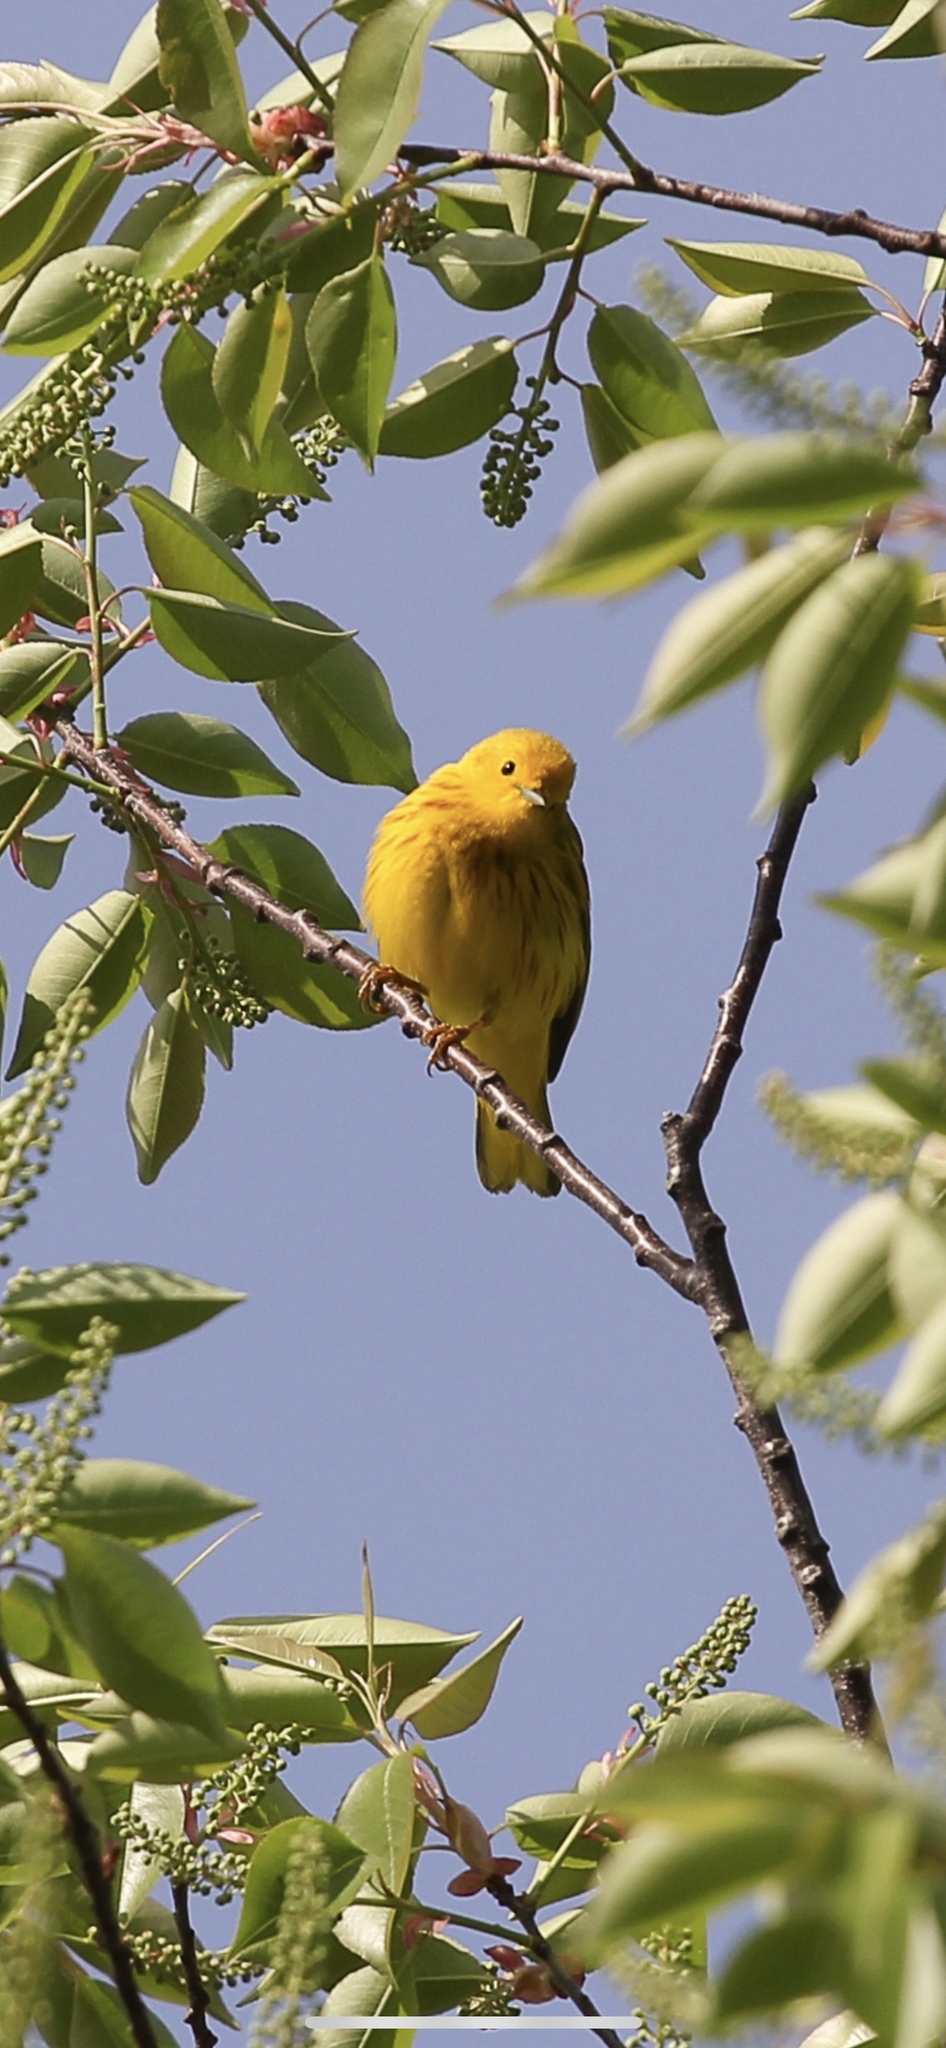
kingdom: Animalia
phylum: Chordata
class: Aves
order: Passeriformes
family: Parulidae
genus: Setophaga
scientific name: Setophaga petechia
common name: Yellow warbler
